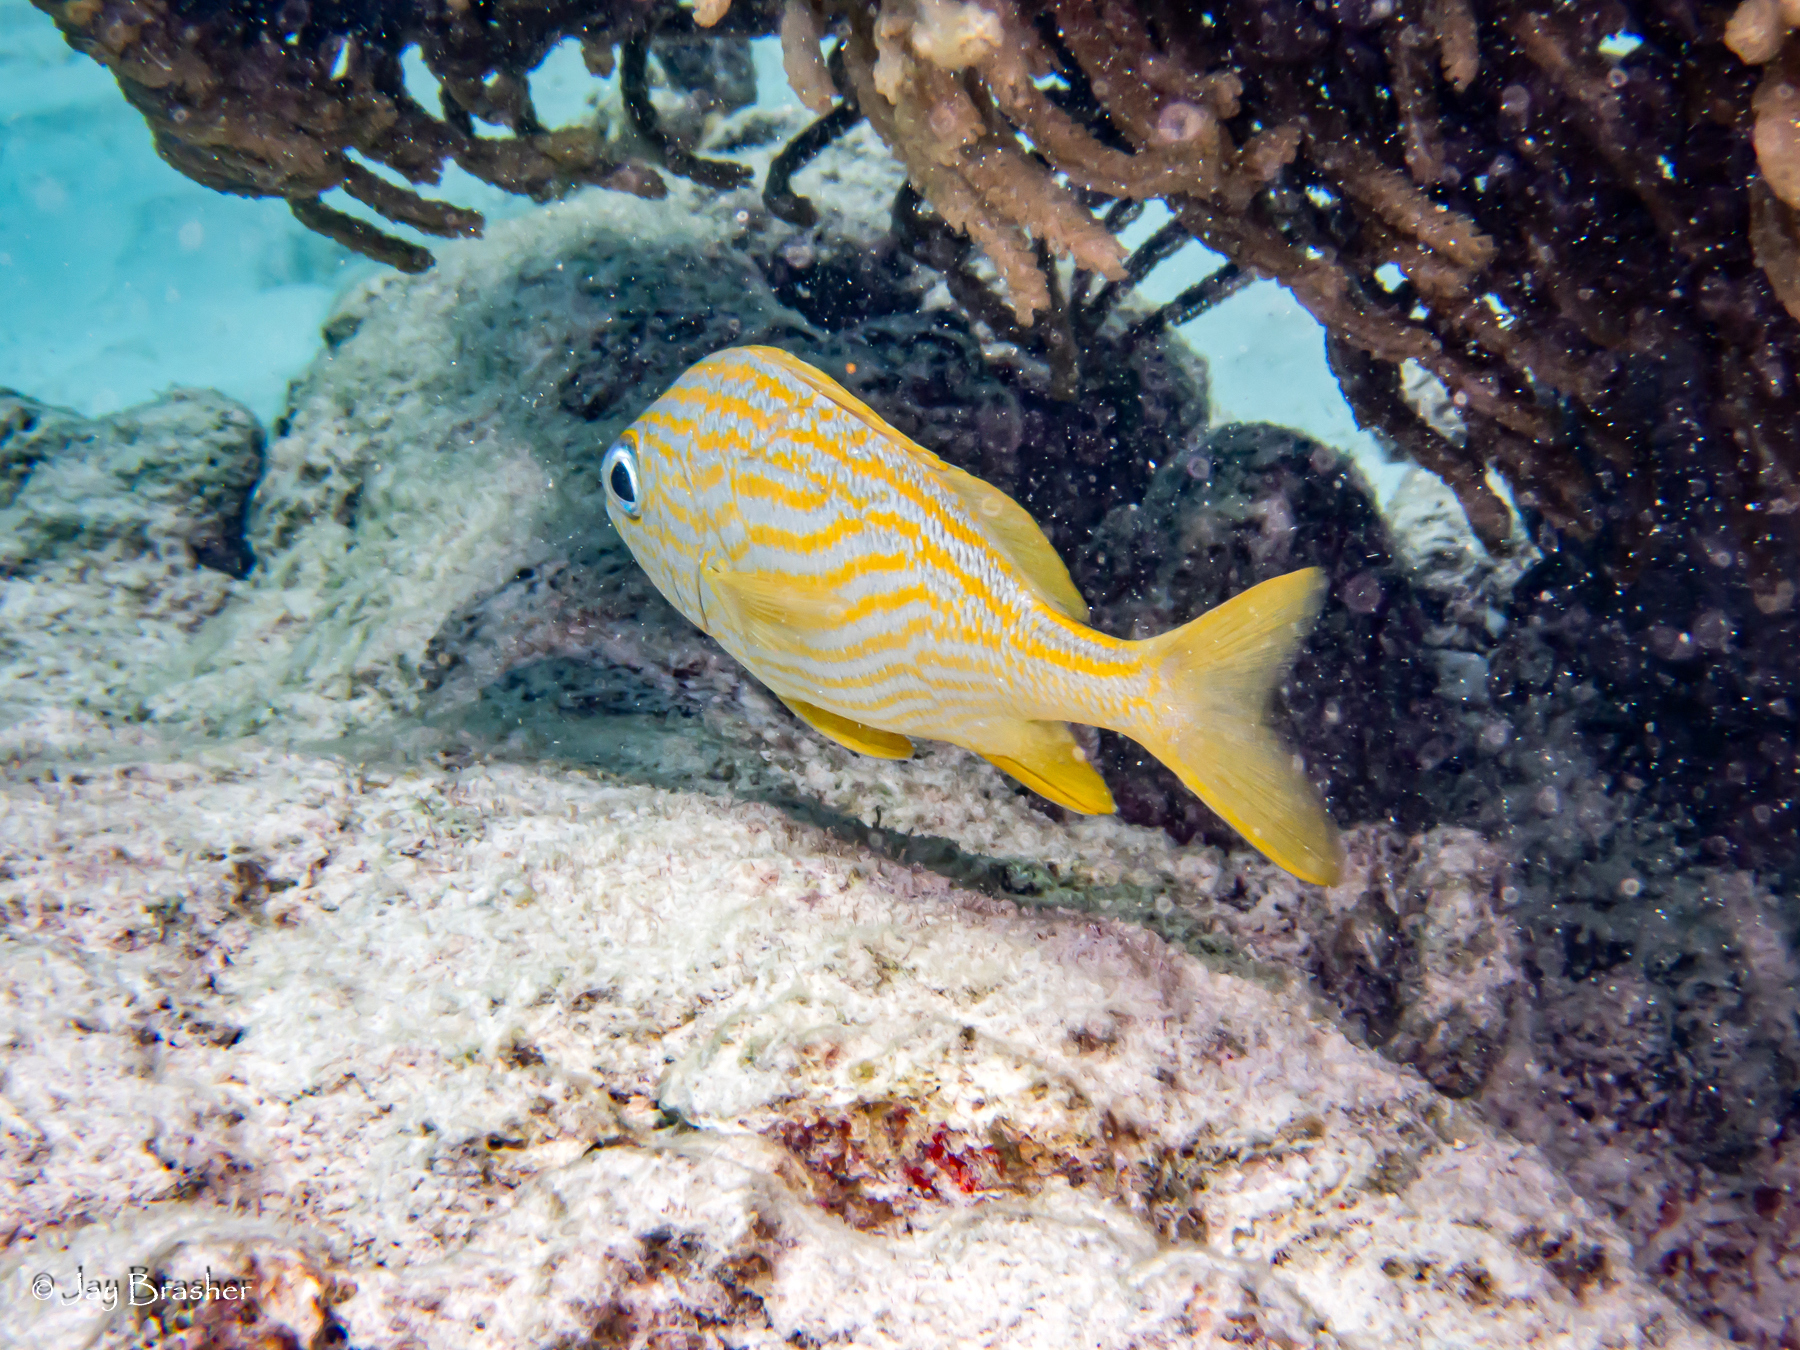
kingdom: Animalia
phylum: Chordata
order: Perciformes
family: Haemulidae
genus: Haemulon
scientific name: Haemulon flavolineatum
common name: French grunt
